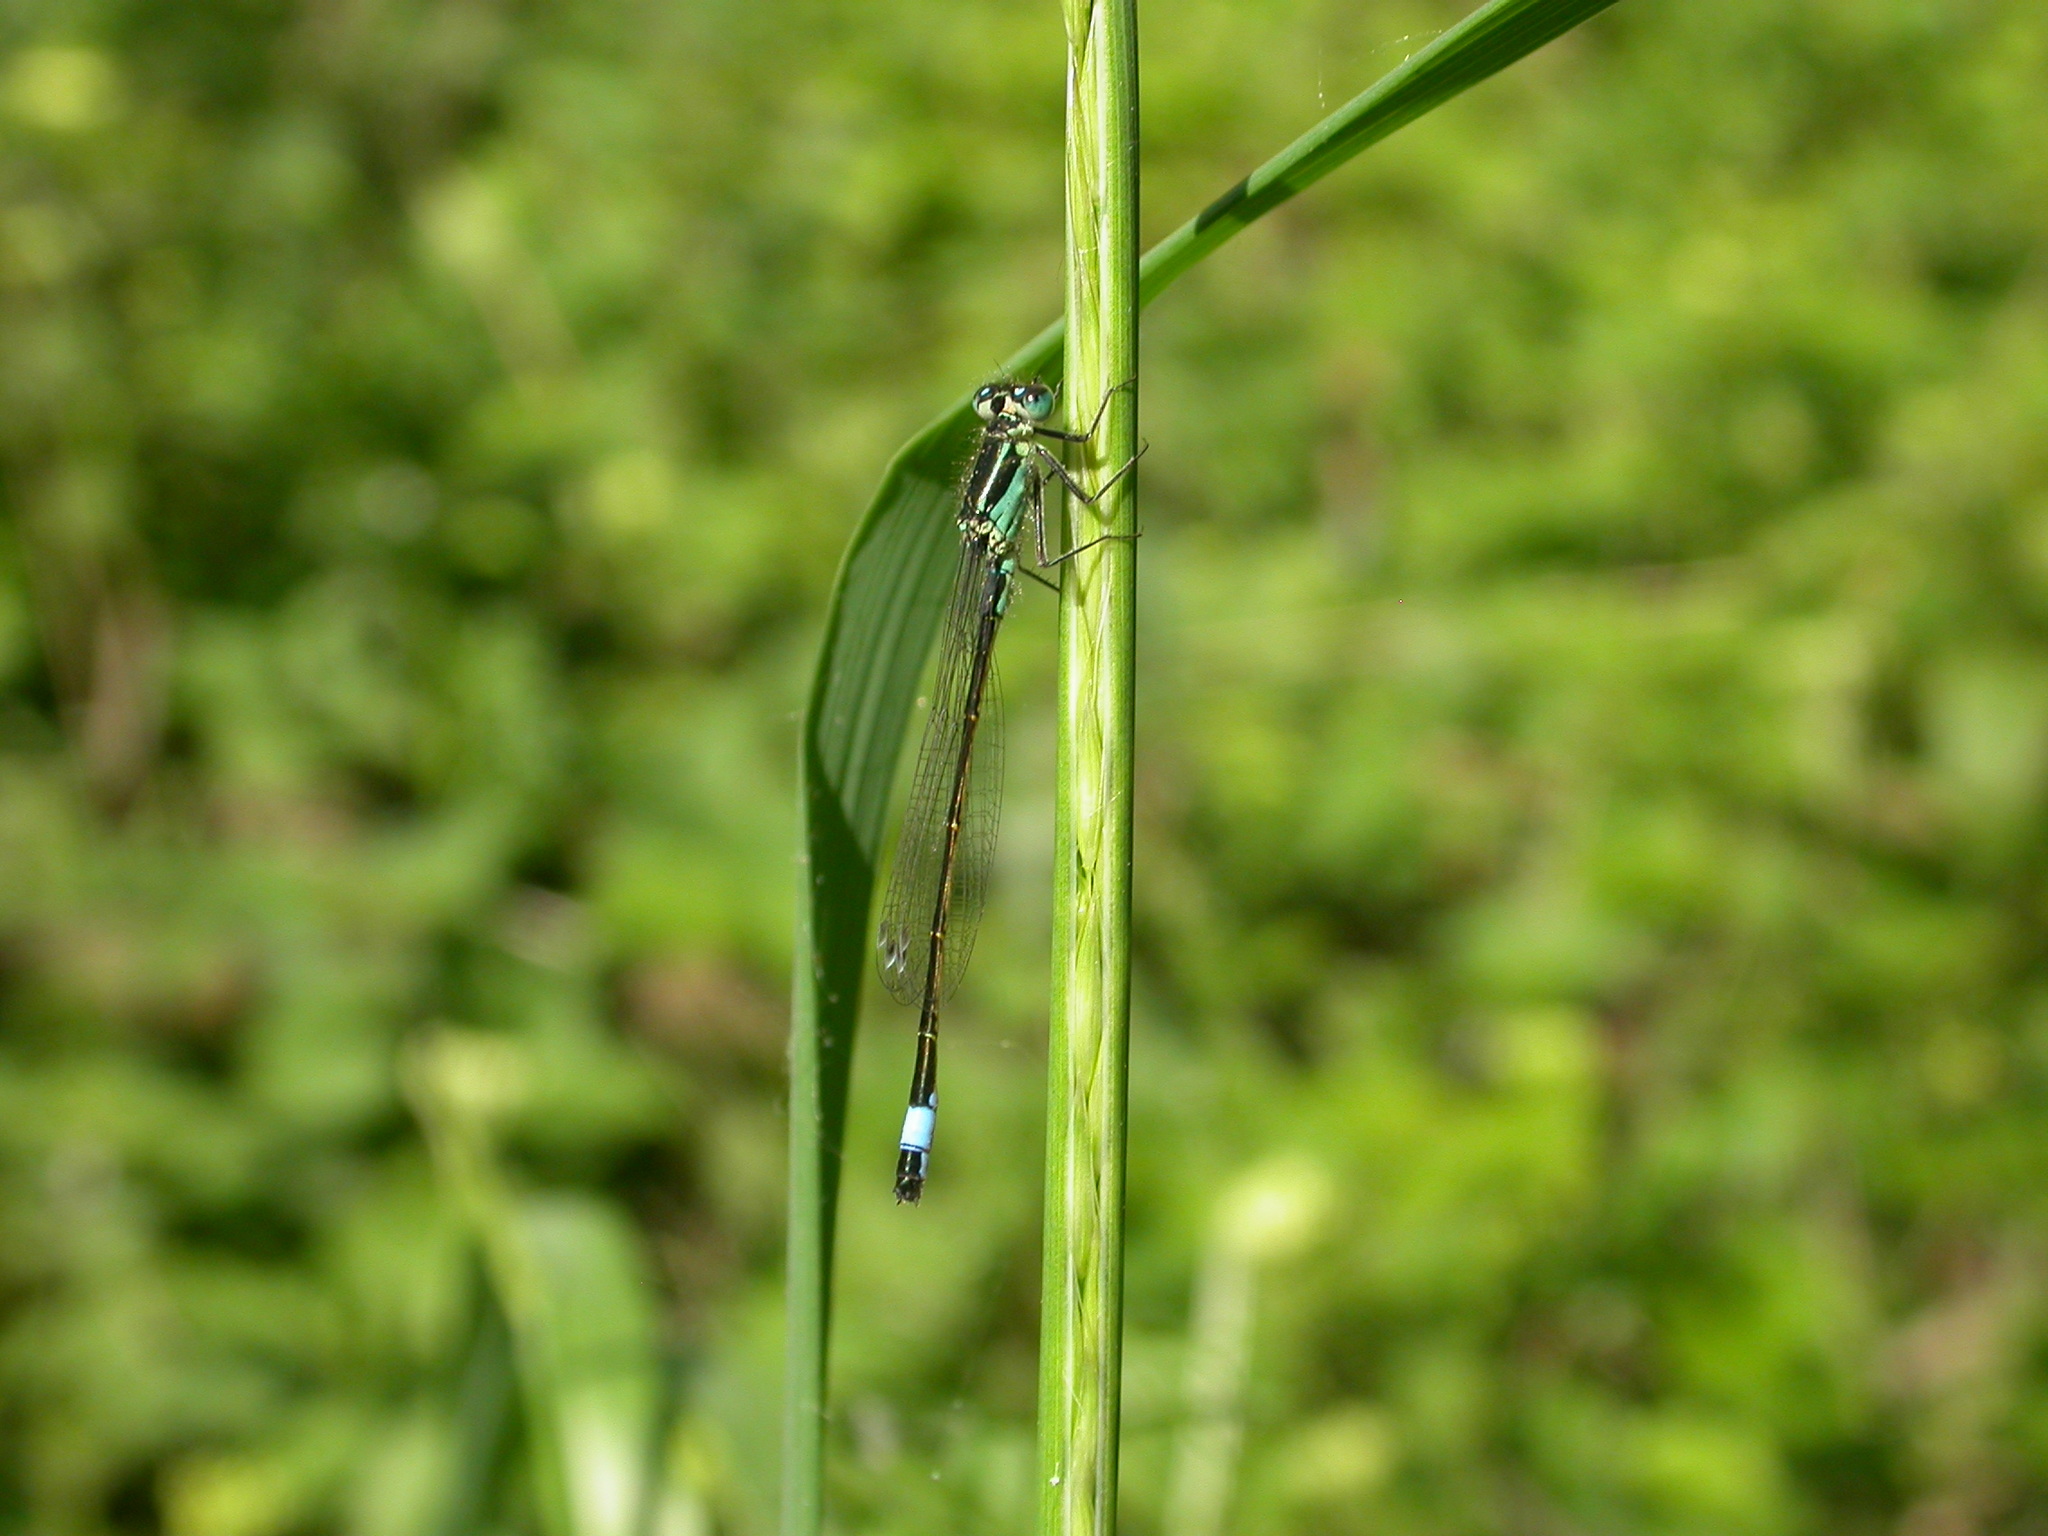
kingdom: Animalia
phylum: Arthropoda
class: Insecta
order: Odonata
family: Coenagrionidae
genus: Ischnura
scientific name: Ischnura elegans
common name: Blue-tailed damselfly
